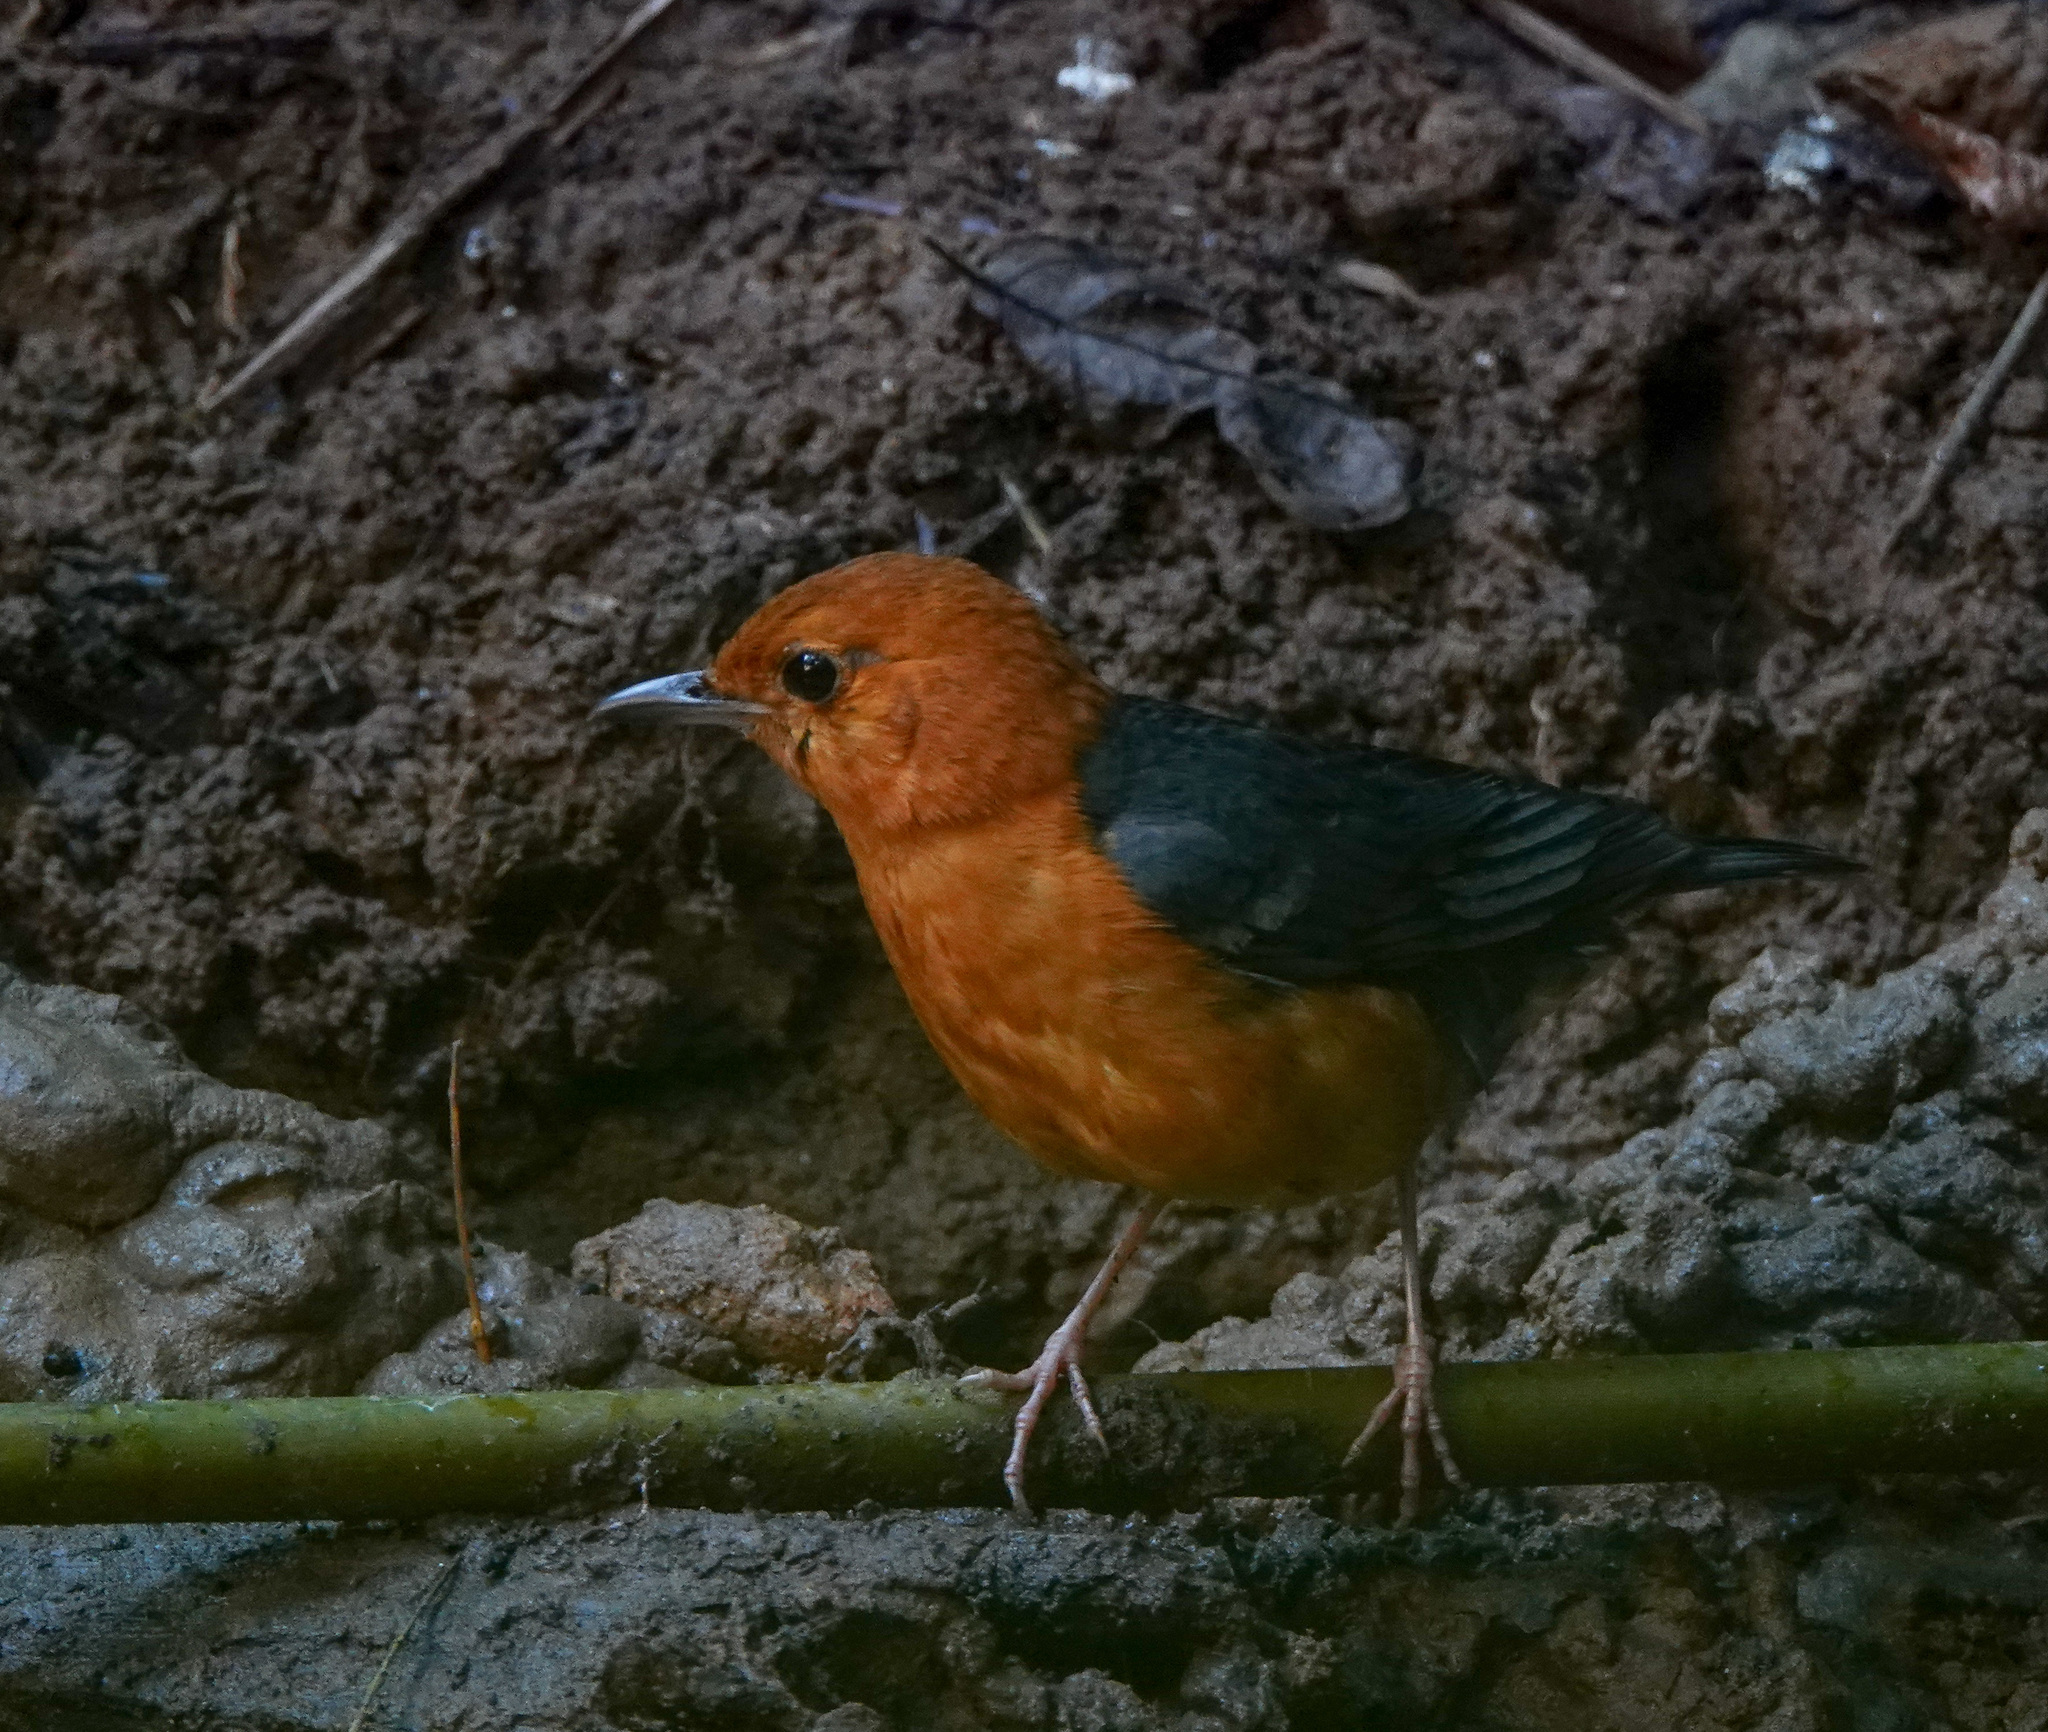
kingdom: Animalia
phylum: Chordata
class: Aves
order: Passeriformes
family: Turdidae
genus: Geokichla
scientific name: Geokichla citrina
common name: Orange-headed thrush
